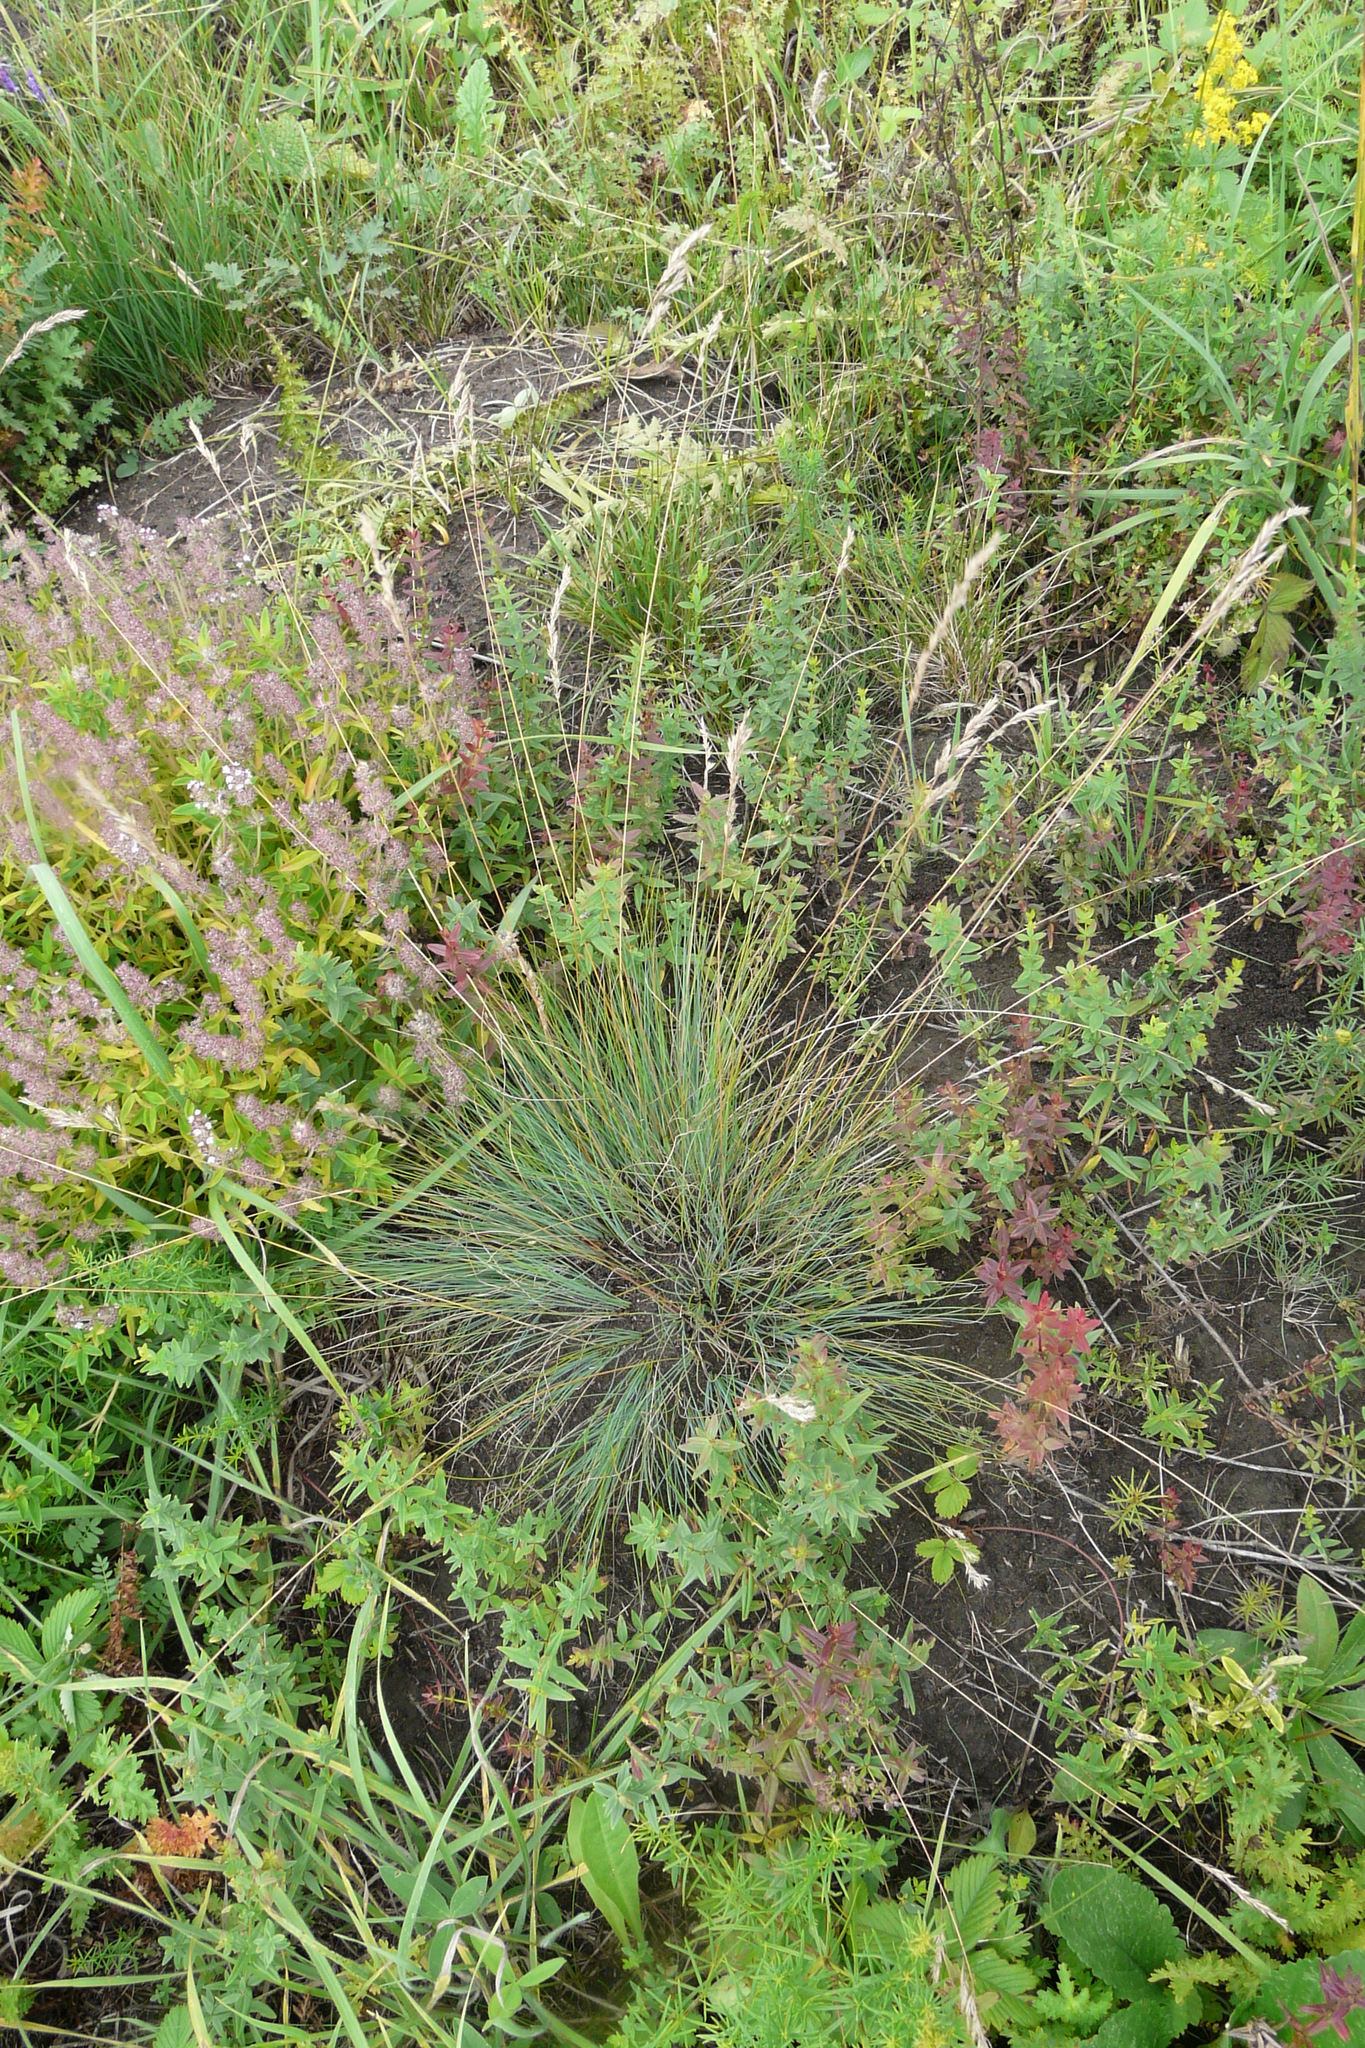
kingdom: Plantae
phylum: Tracheophyta
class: Liliopsida
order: Poales
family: Poaceae
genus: Festuca
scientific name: Festuca valesiaca
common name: Volga fescue
